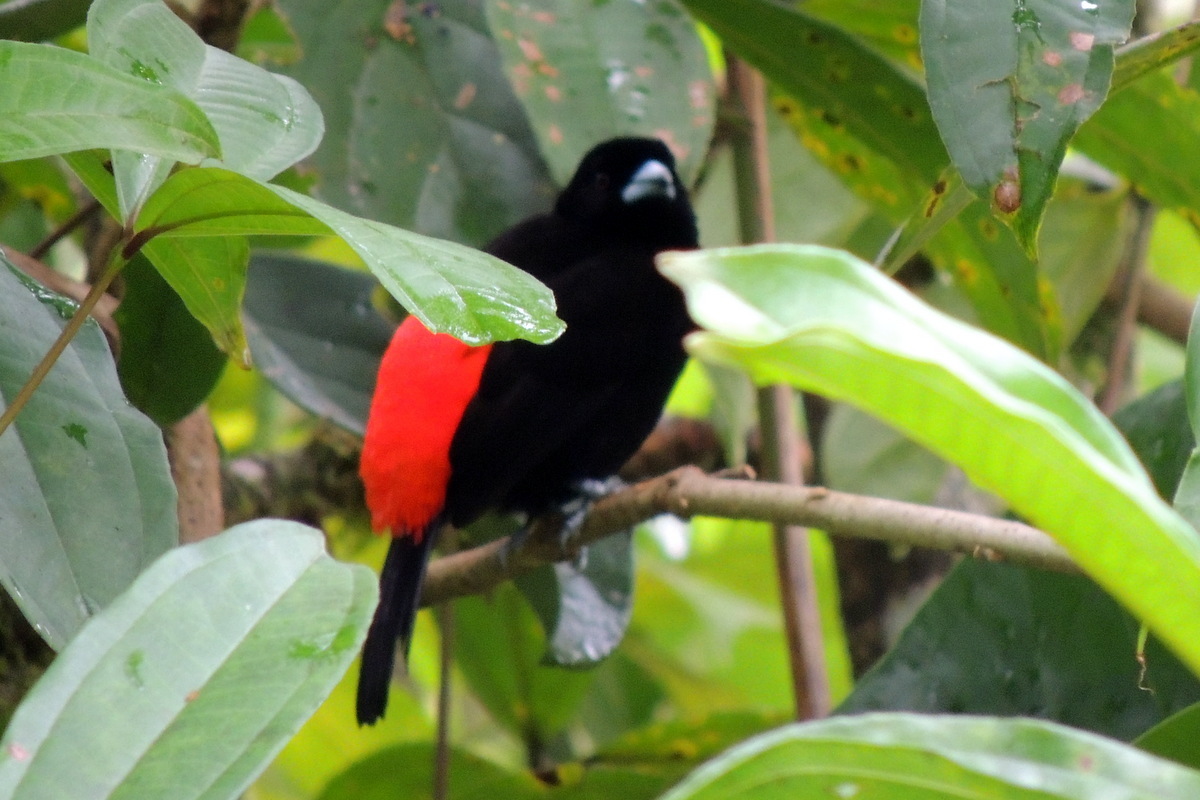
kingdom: Animalia
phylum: Chordata
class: Aves
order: Passeriformes
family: Thraupidae
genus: Ramphocelus
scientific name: Ramphocelus passerinii
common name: Passerini's tanager
